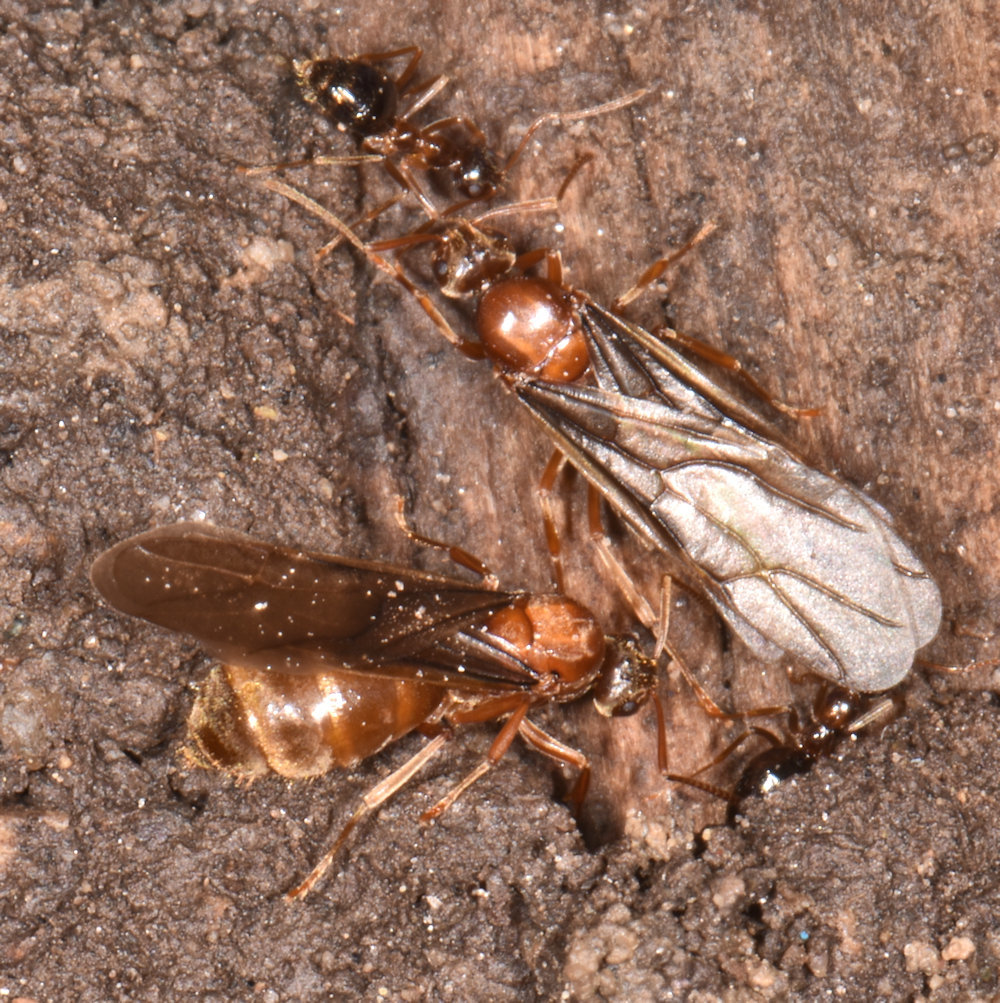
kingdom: Animalia
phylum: Arthropoda
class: Insecta
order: Hymenoptera
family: Formicidae
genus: Prenolepis
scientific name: Prenolepis imparis
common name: Small honey ant
